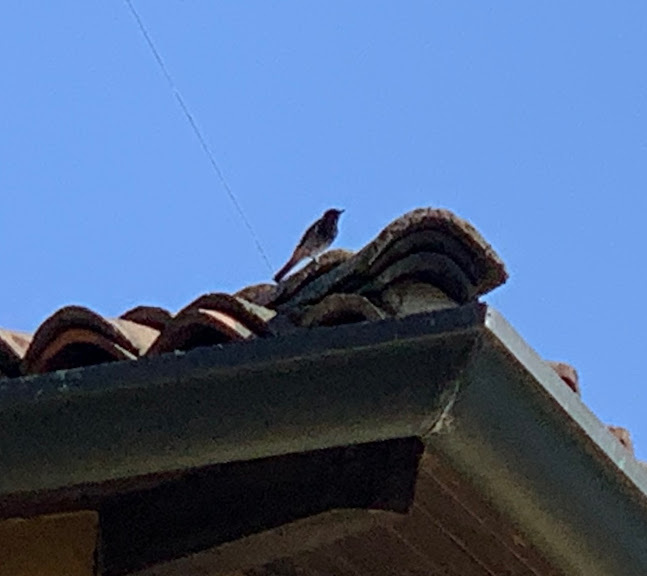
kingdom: Animalia
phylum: Chordata
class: Aves
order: Passeriformes
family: Muscicapidae
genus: Phoenicurus
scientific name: Phoenicurus ochruros
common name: Black redstart
